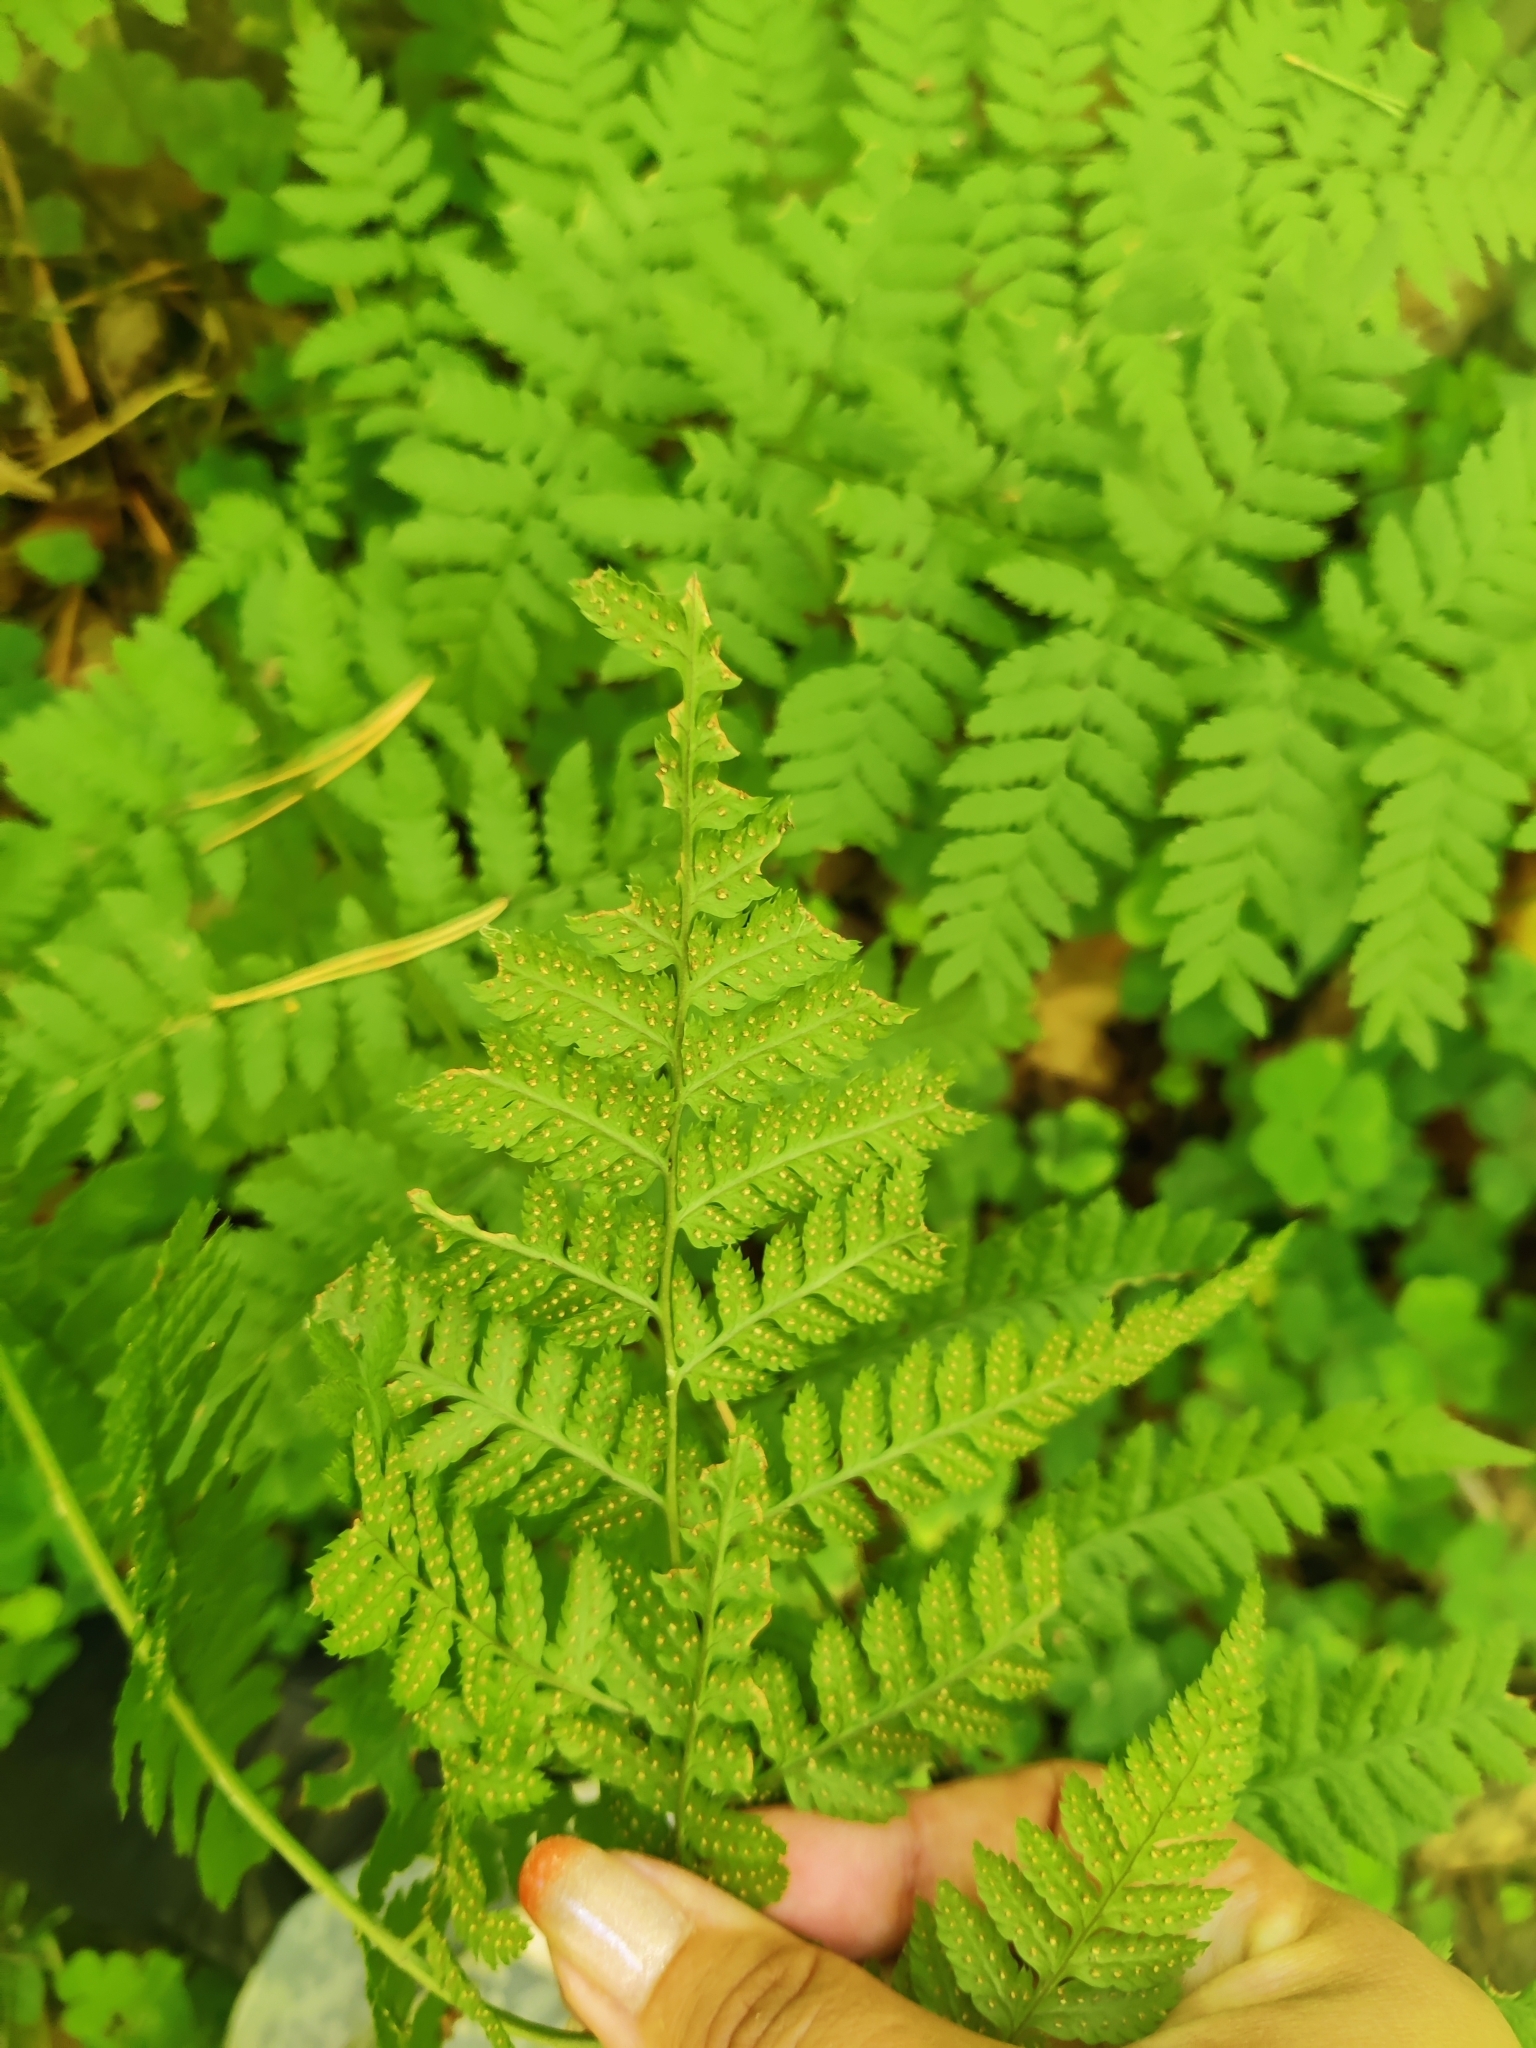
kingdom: Plantae
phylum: Tracheophyta
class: Polypodiopsida
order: Polypodiales
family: Dryopteridaceae
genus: Dryopteris
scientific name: Dryopteris carthusiana
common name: Narrow buckler-fern
